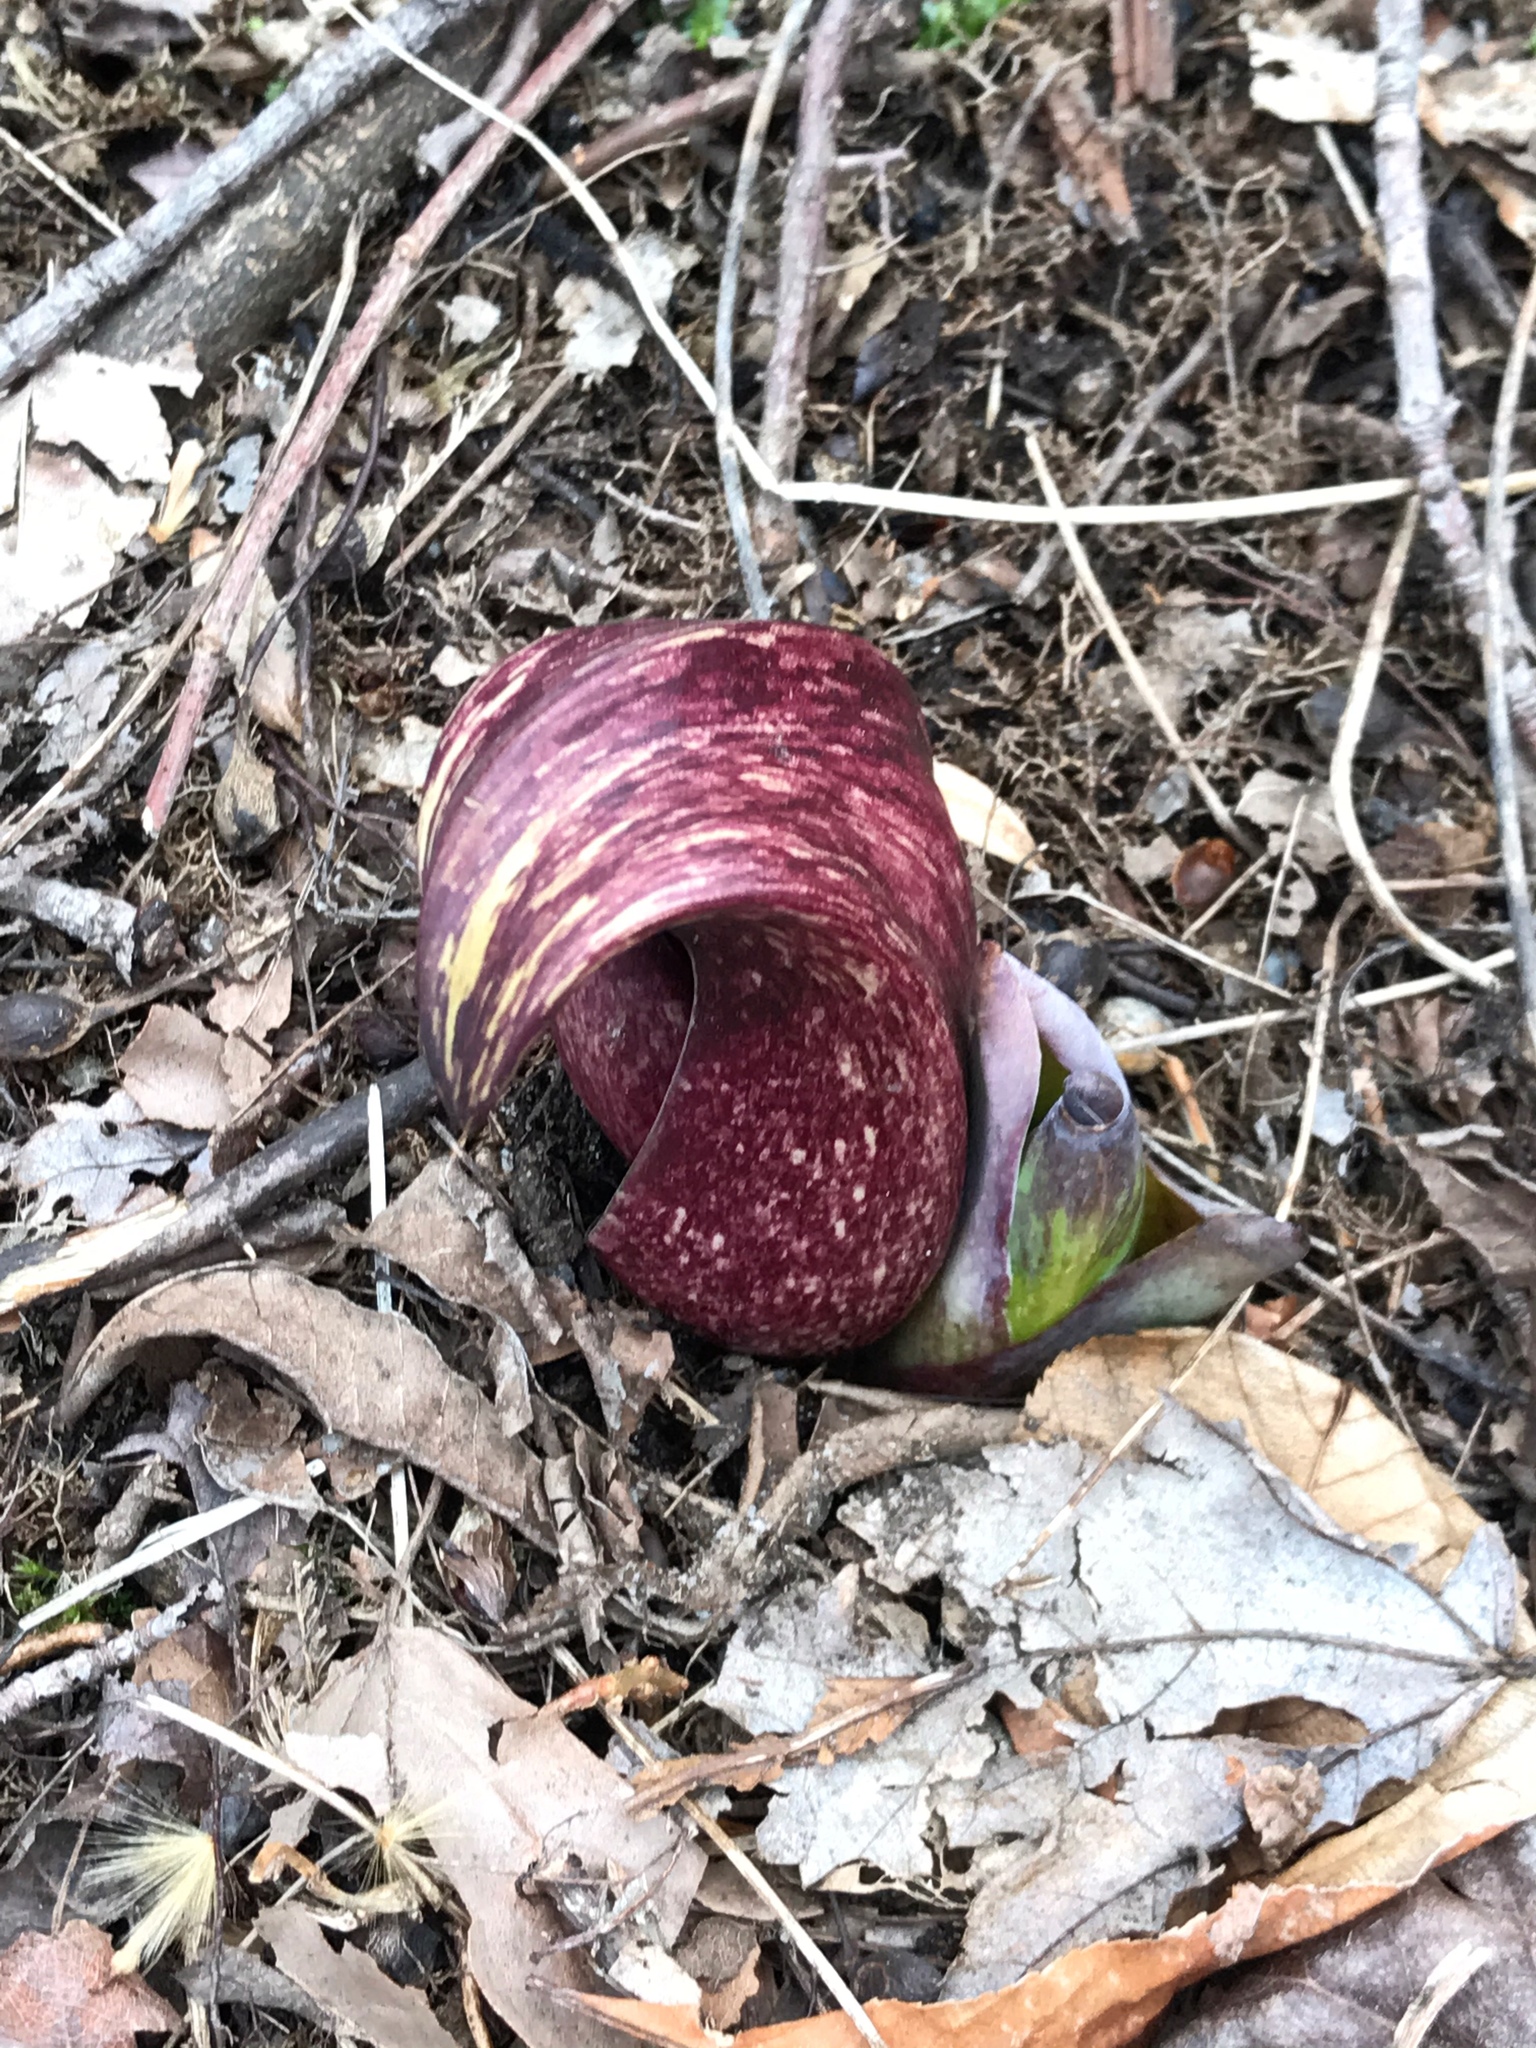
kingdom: Plantae
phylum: Tracheophyta
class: Liliopsida
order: Alismatales
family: Araceae
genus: Symplocarpus
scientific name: Symplocarpus foetidus
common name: Eastern skunk cabbage
